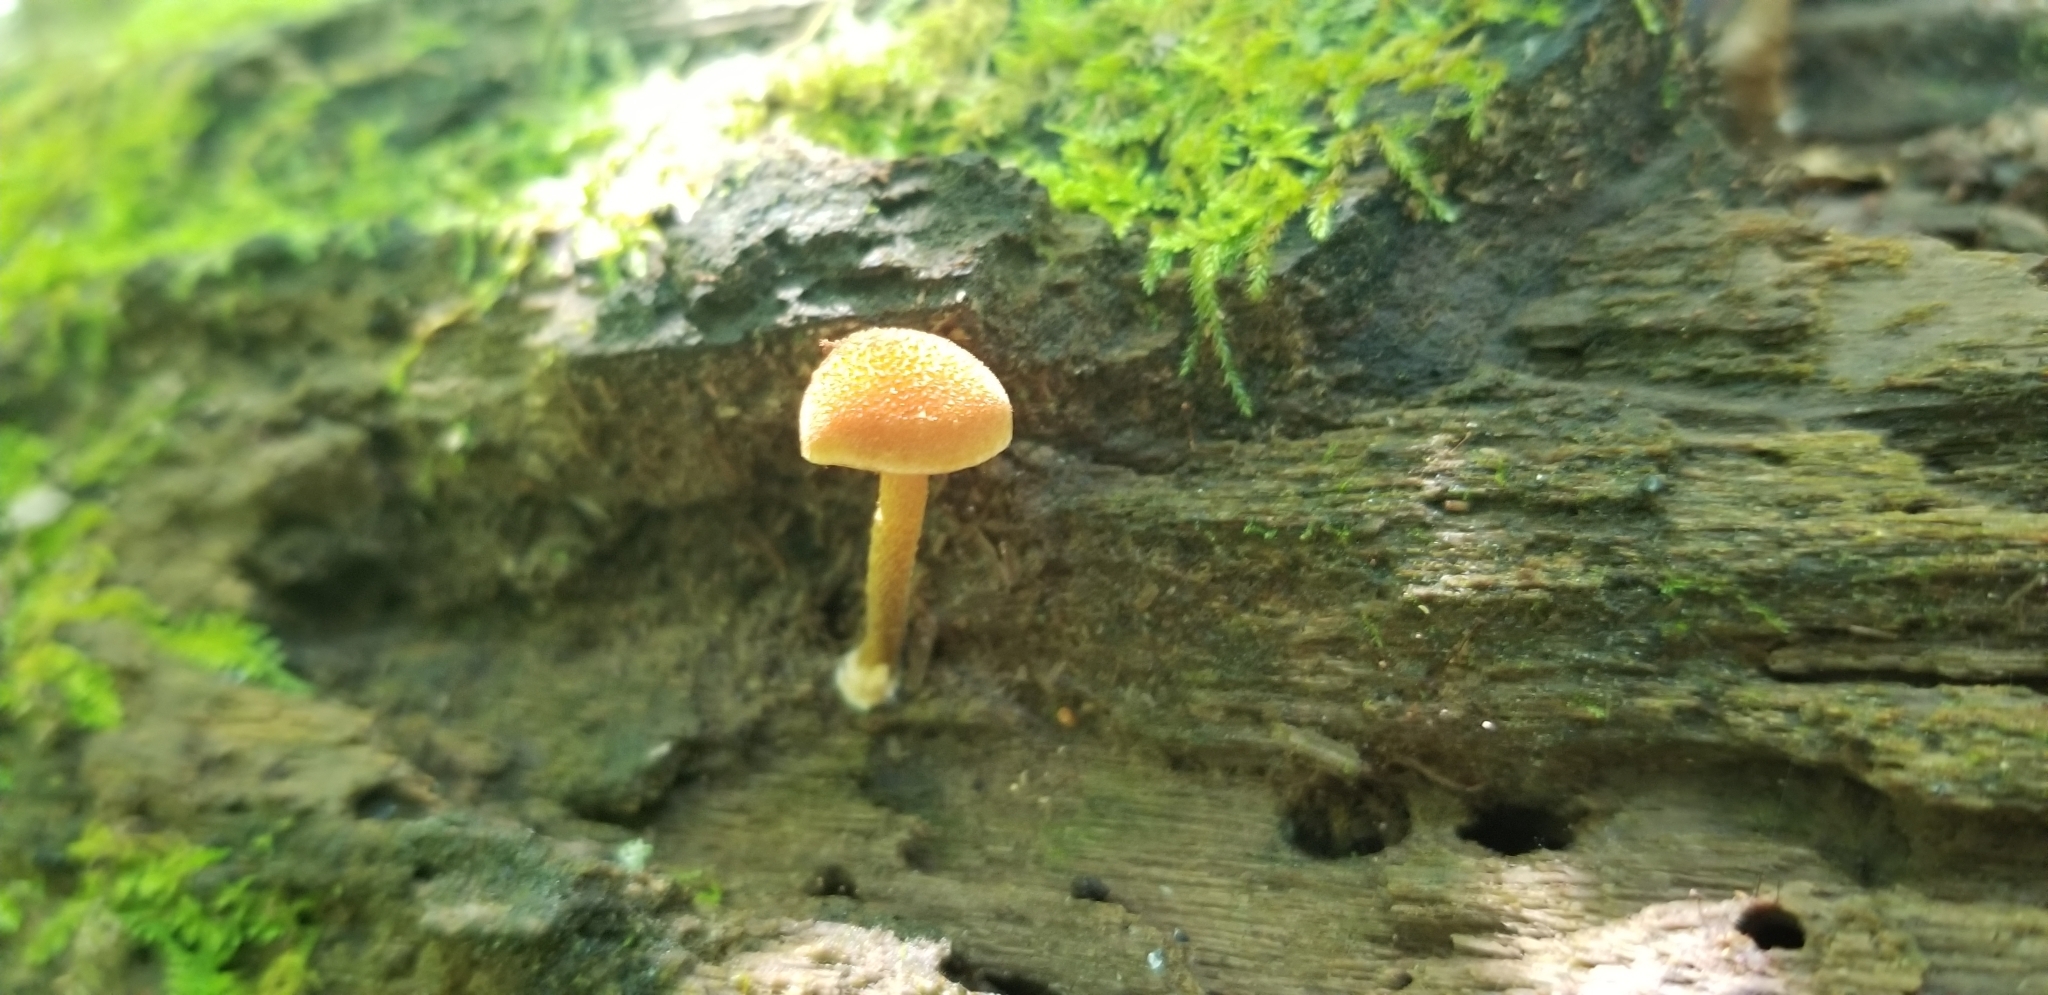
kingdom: Fungi
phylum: Basidiomycota
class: Agaricomycetes
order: Agaricales
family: Strophariaceae
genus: Pholiota
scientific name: Pholiota granulosa
